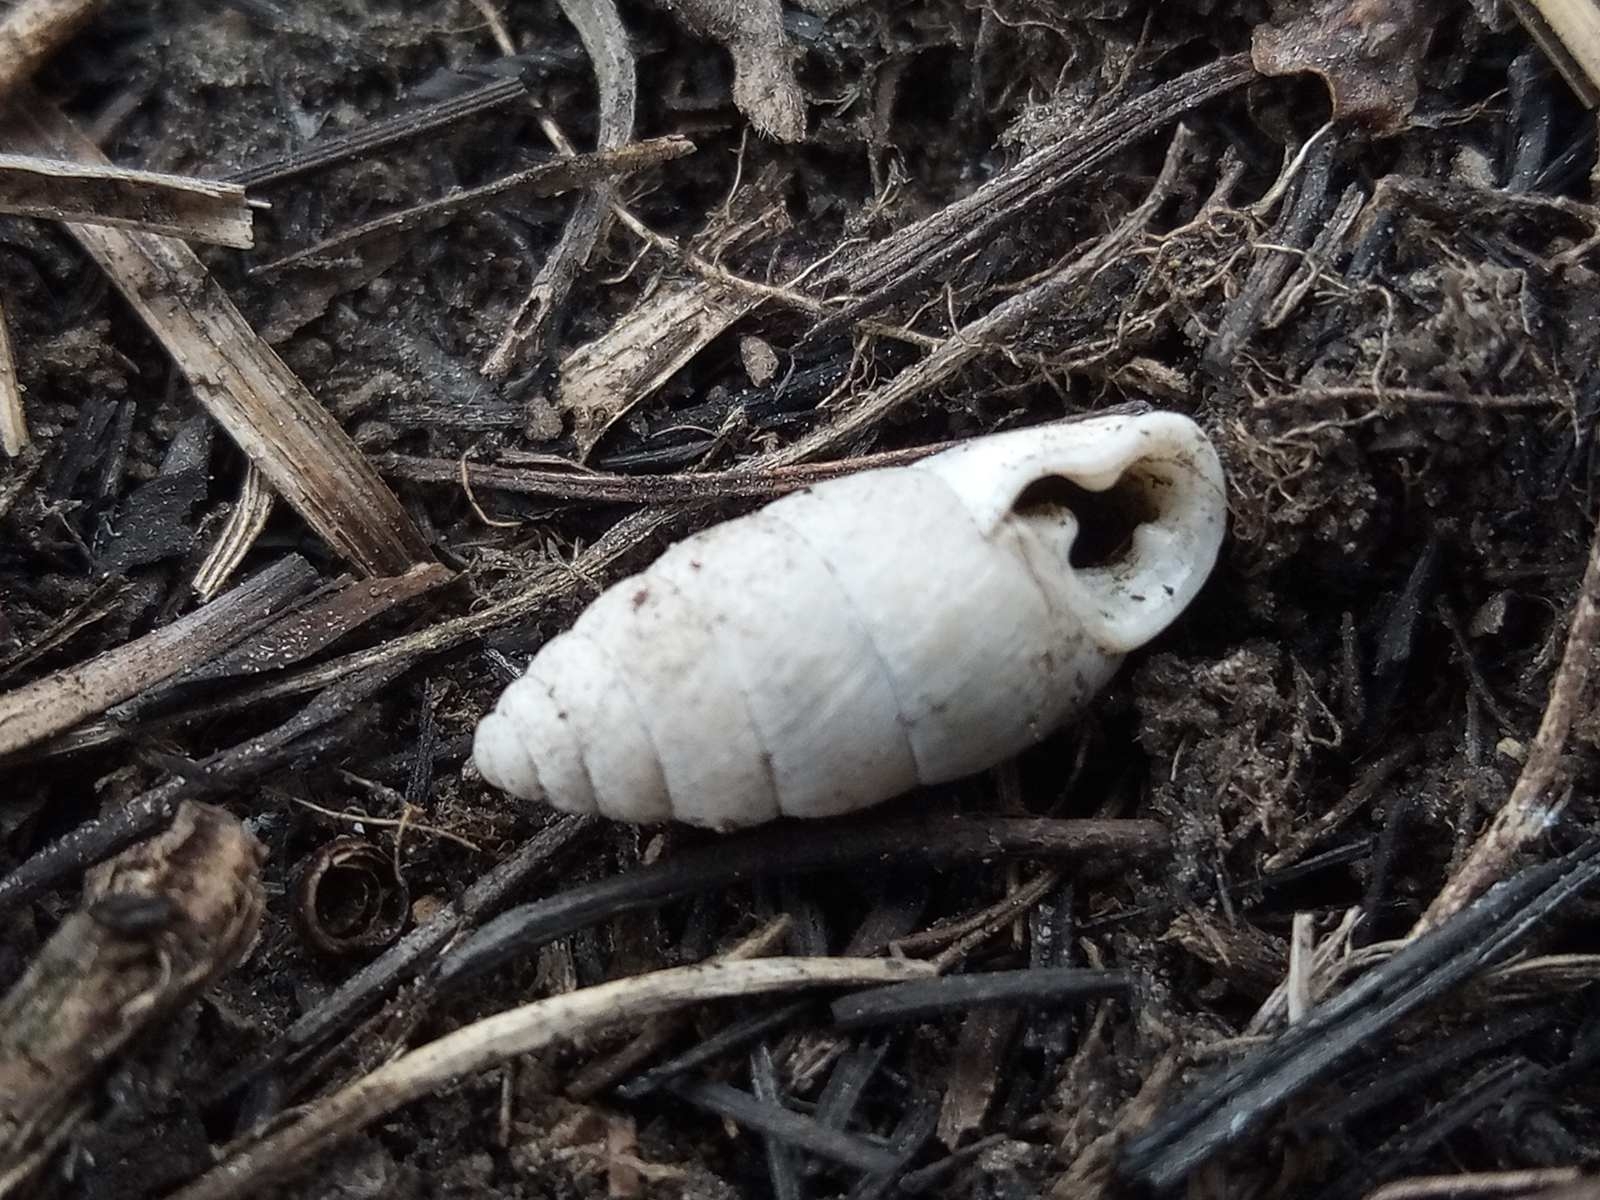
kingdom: Animalia
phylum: Mollusca
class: Gastropoda
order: Stylommatophora
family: Enidae
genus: Chondrula
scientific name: Chondrula tridens
